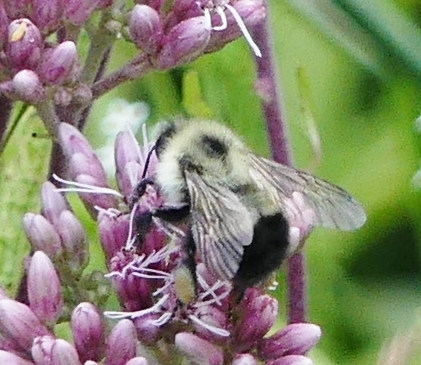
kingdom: Animalia
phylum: Arthropoda
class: Insecta
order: Hymenoptera
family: Apidae
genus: Bombus
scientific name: Bombus vagans
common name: Half-black bumble bee
